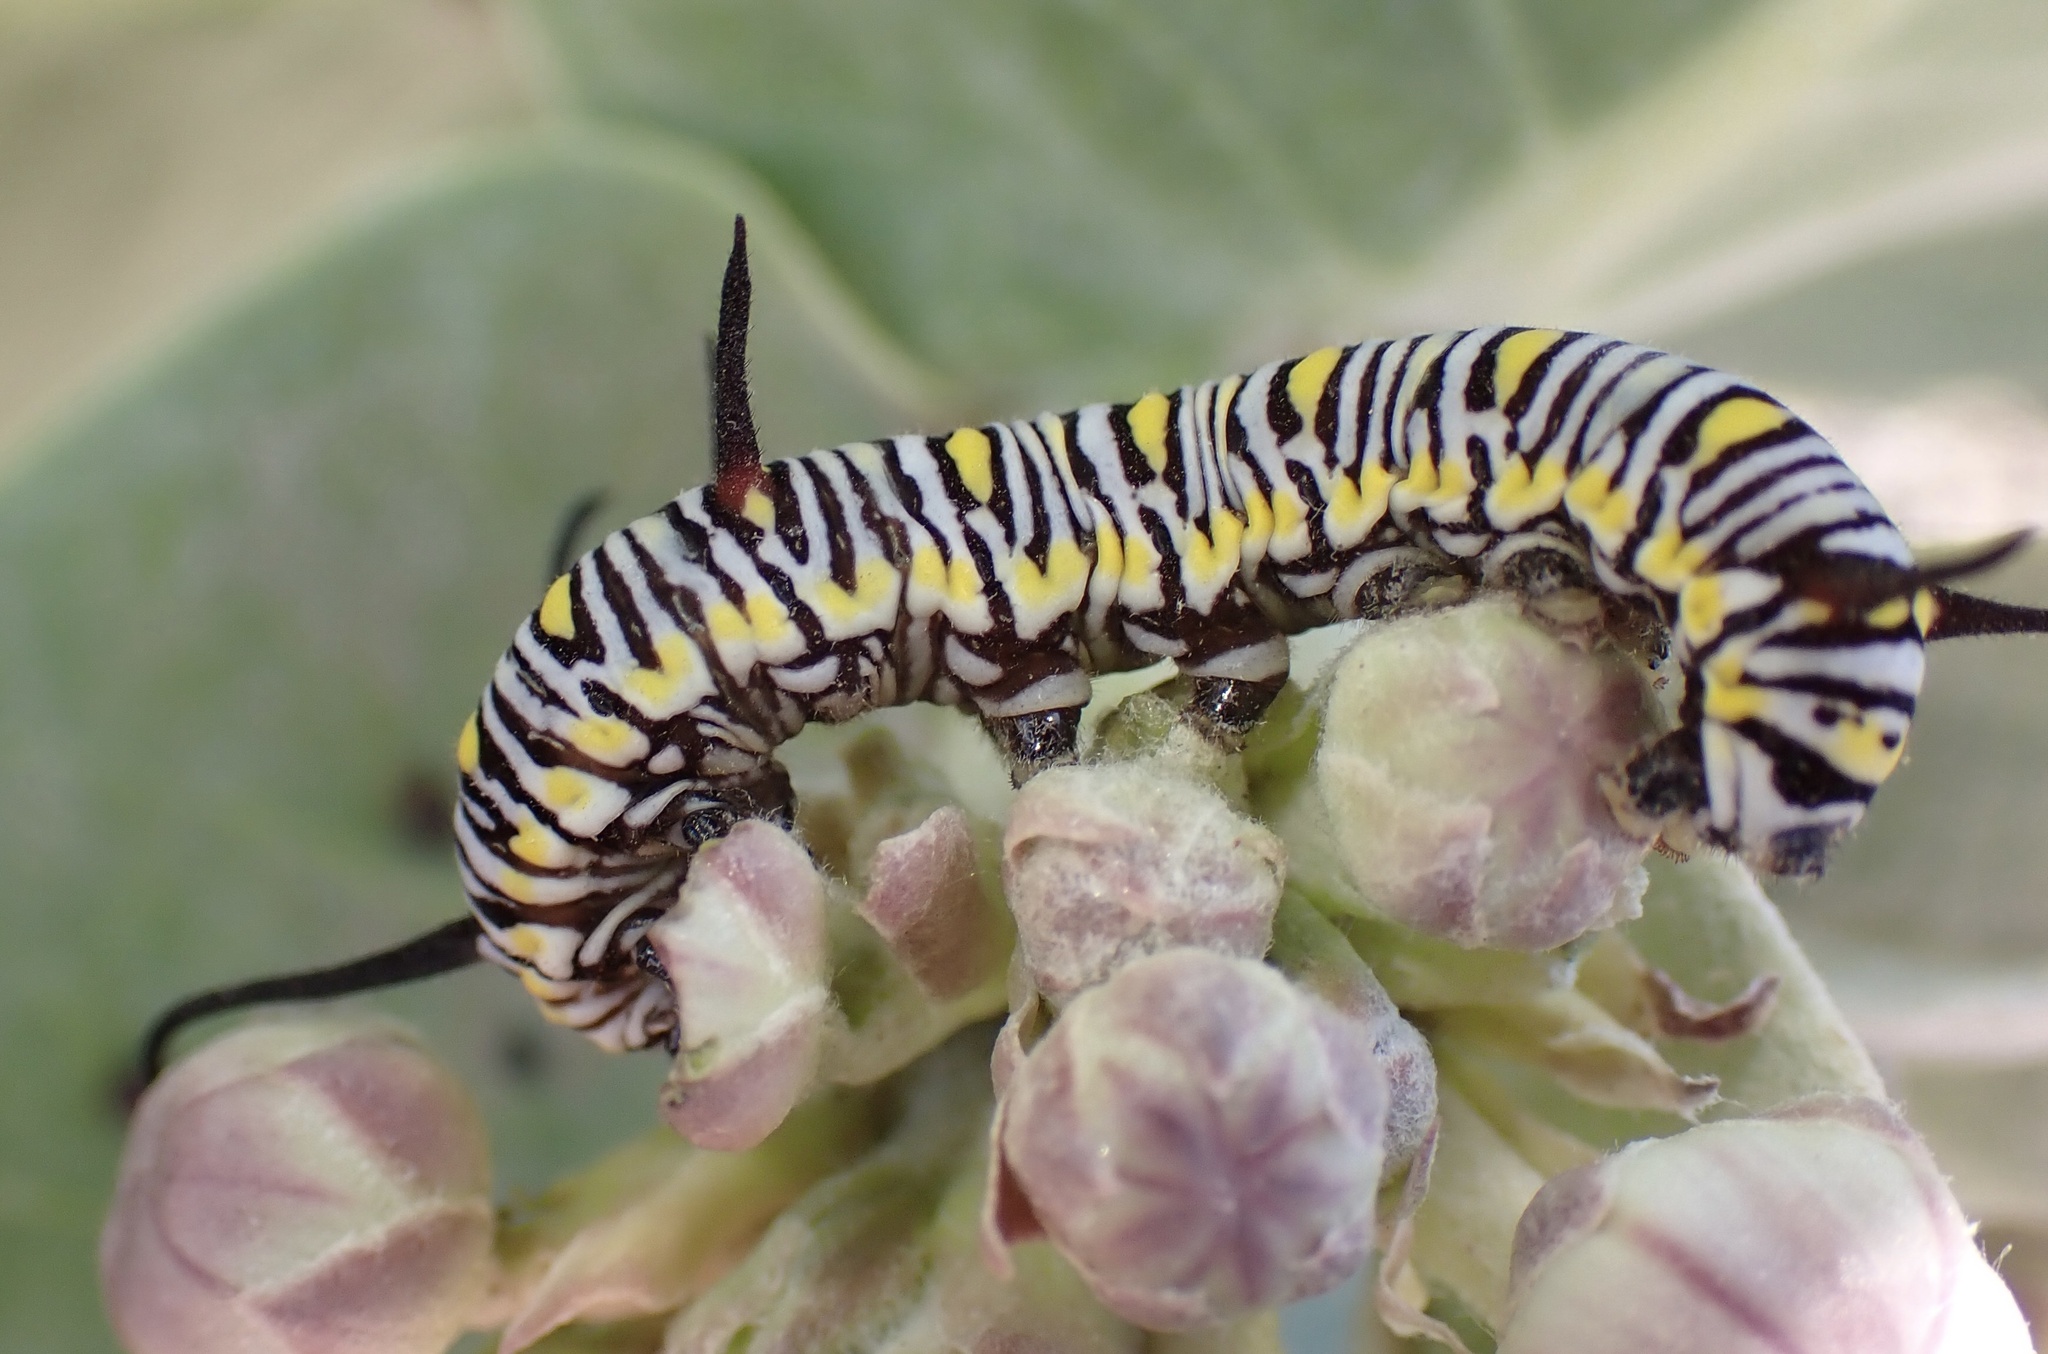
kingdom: Animalia
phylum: Arthropoda
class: Insecta
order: Lepidoptera
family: Nymphalidae
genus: Danaus
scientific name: Danaus chrysippus
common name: Plain tiger
